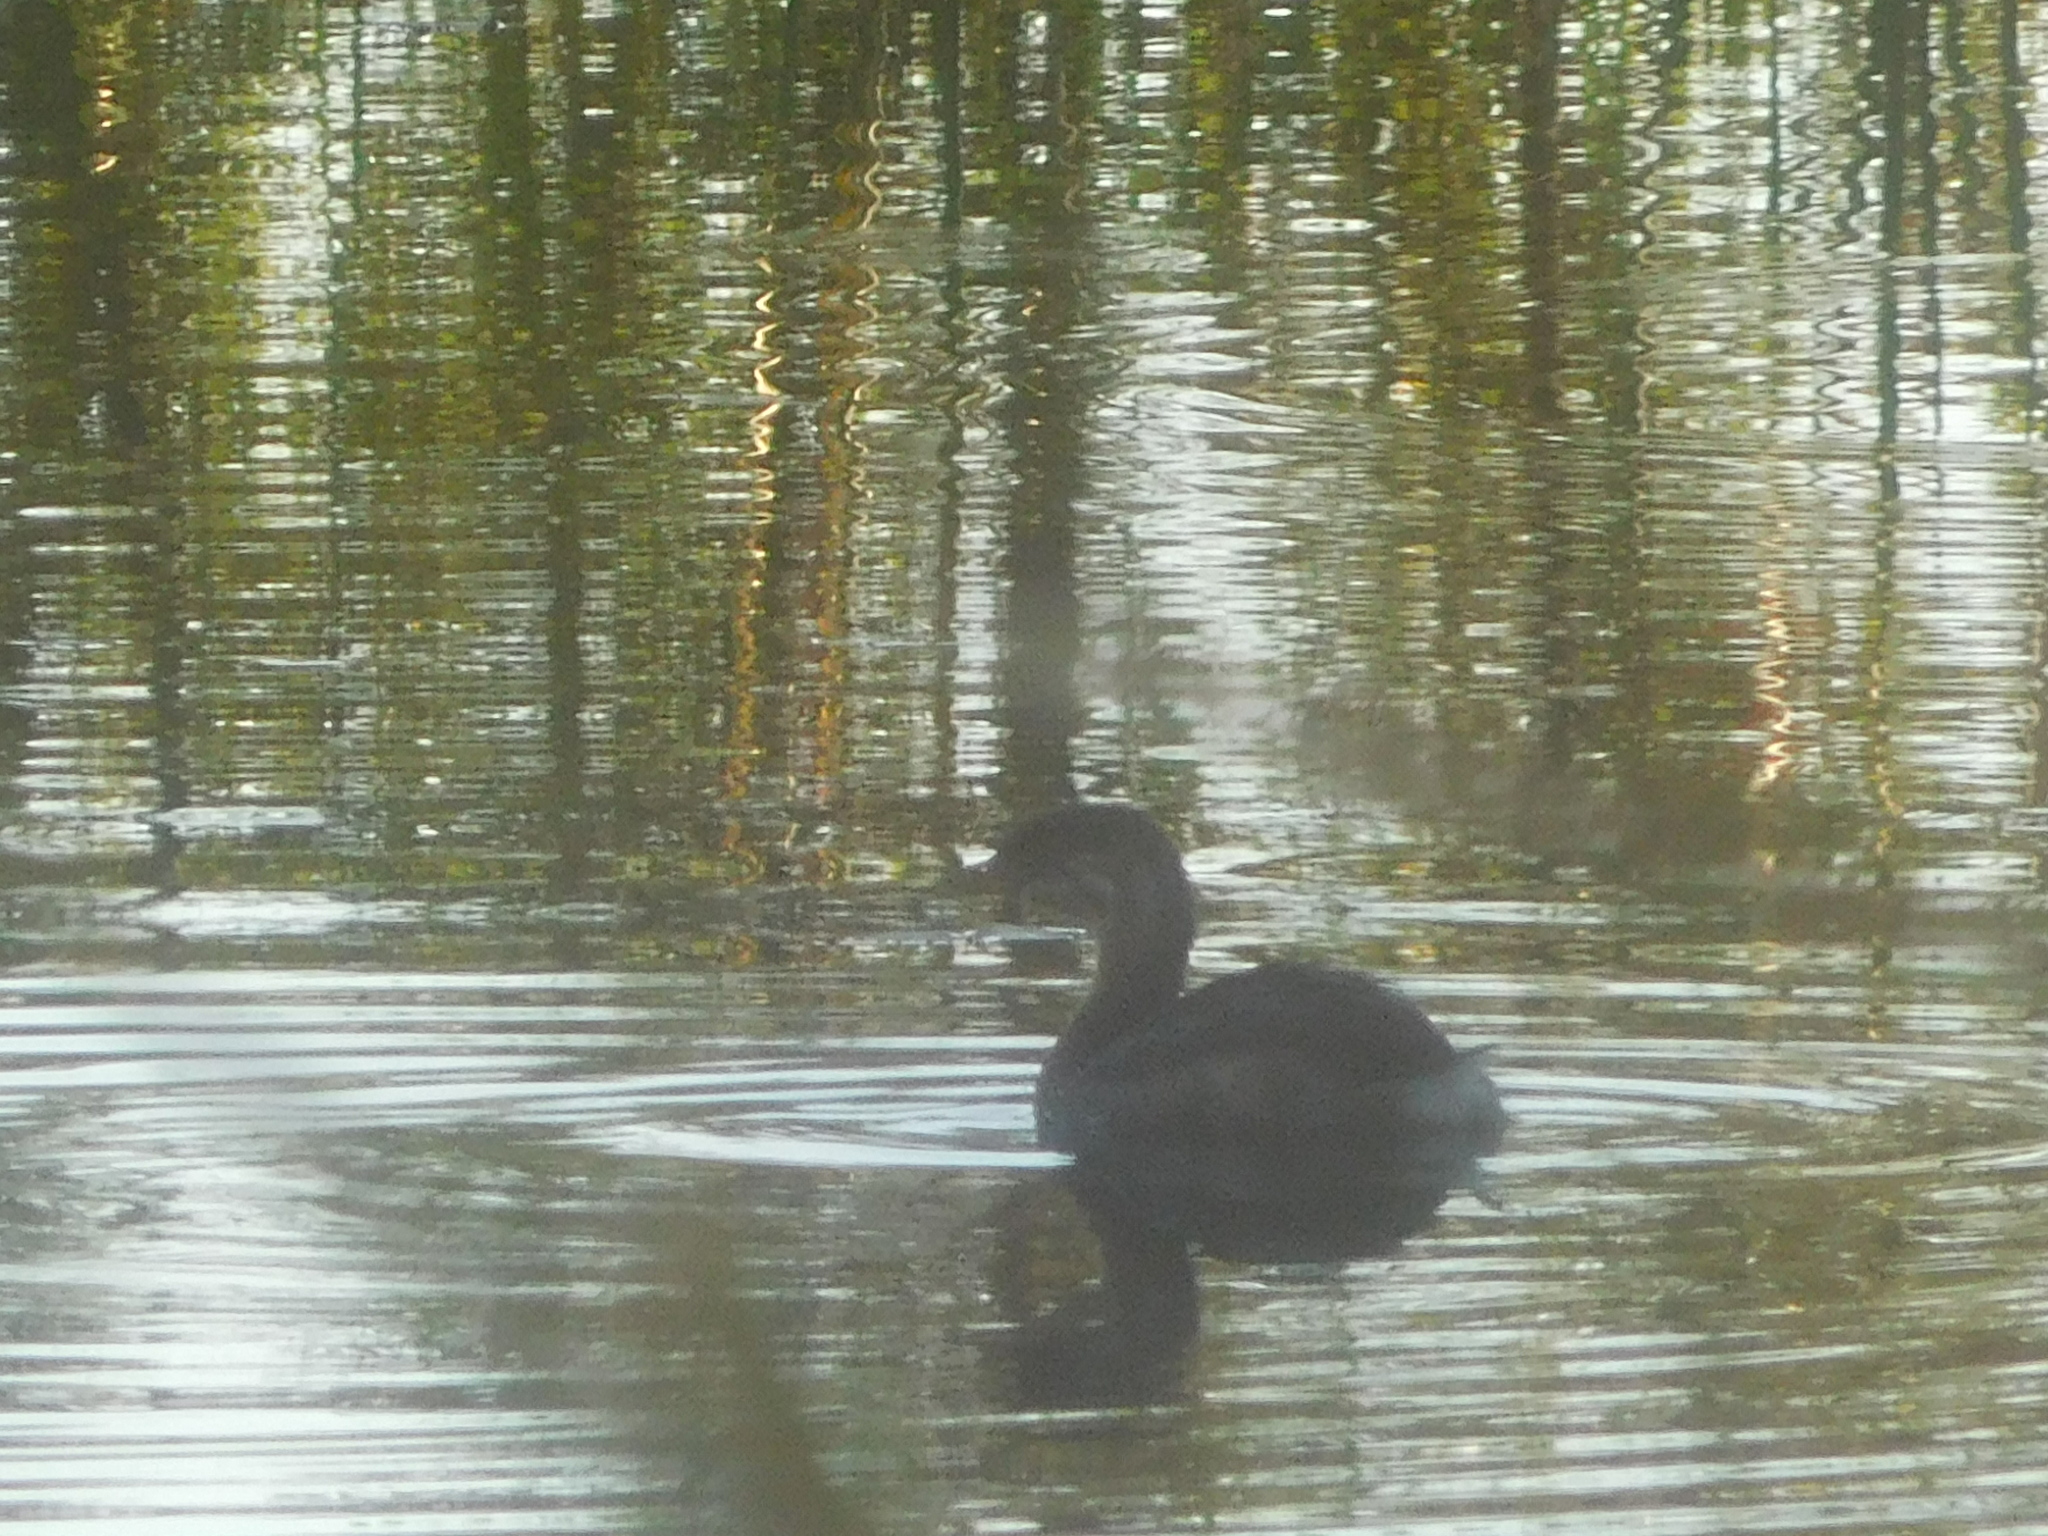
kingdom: Animalia
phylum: Chordata
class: Aves
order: Podicipediformes
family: Podicipedidae
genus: Podilymbus
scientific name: Podilymbus podiceps
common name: Pied-billed grebe
